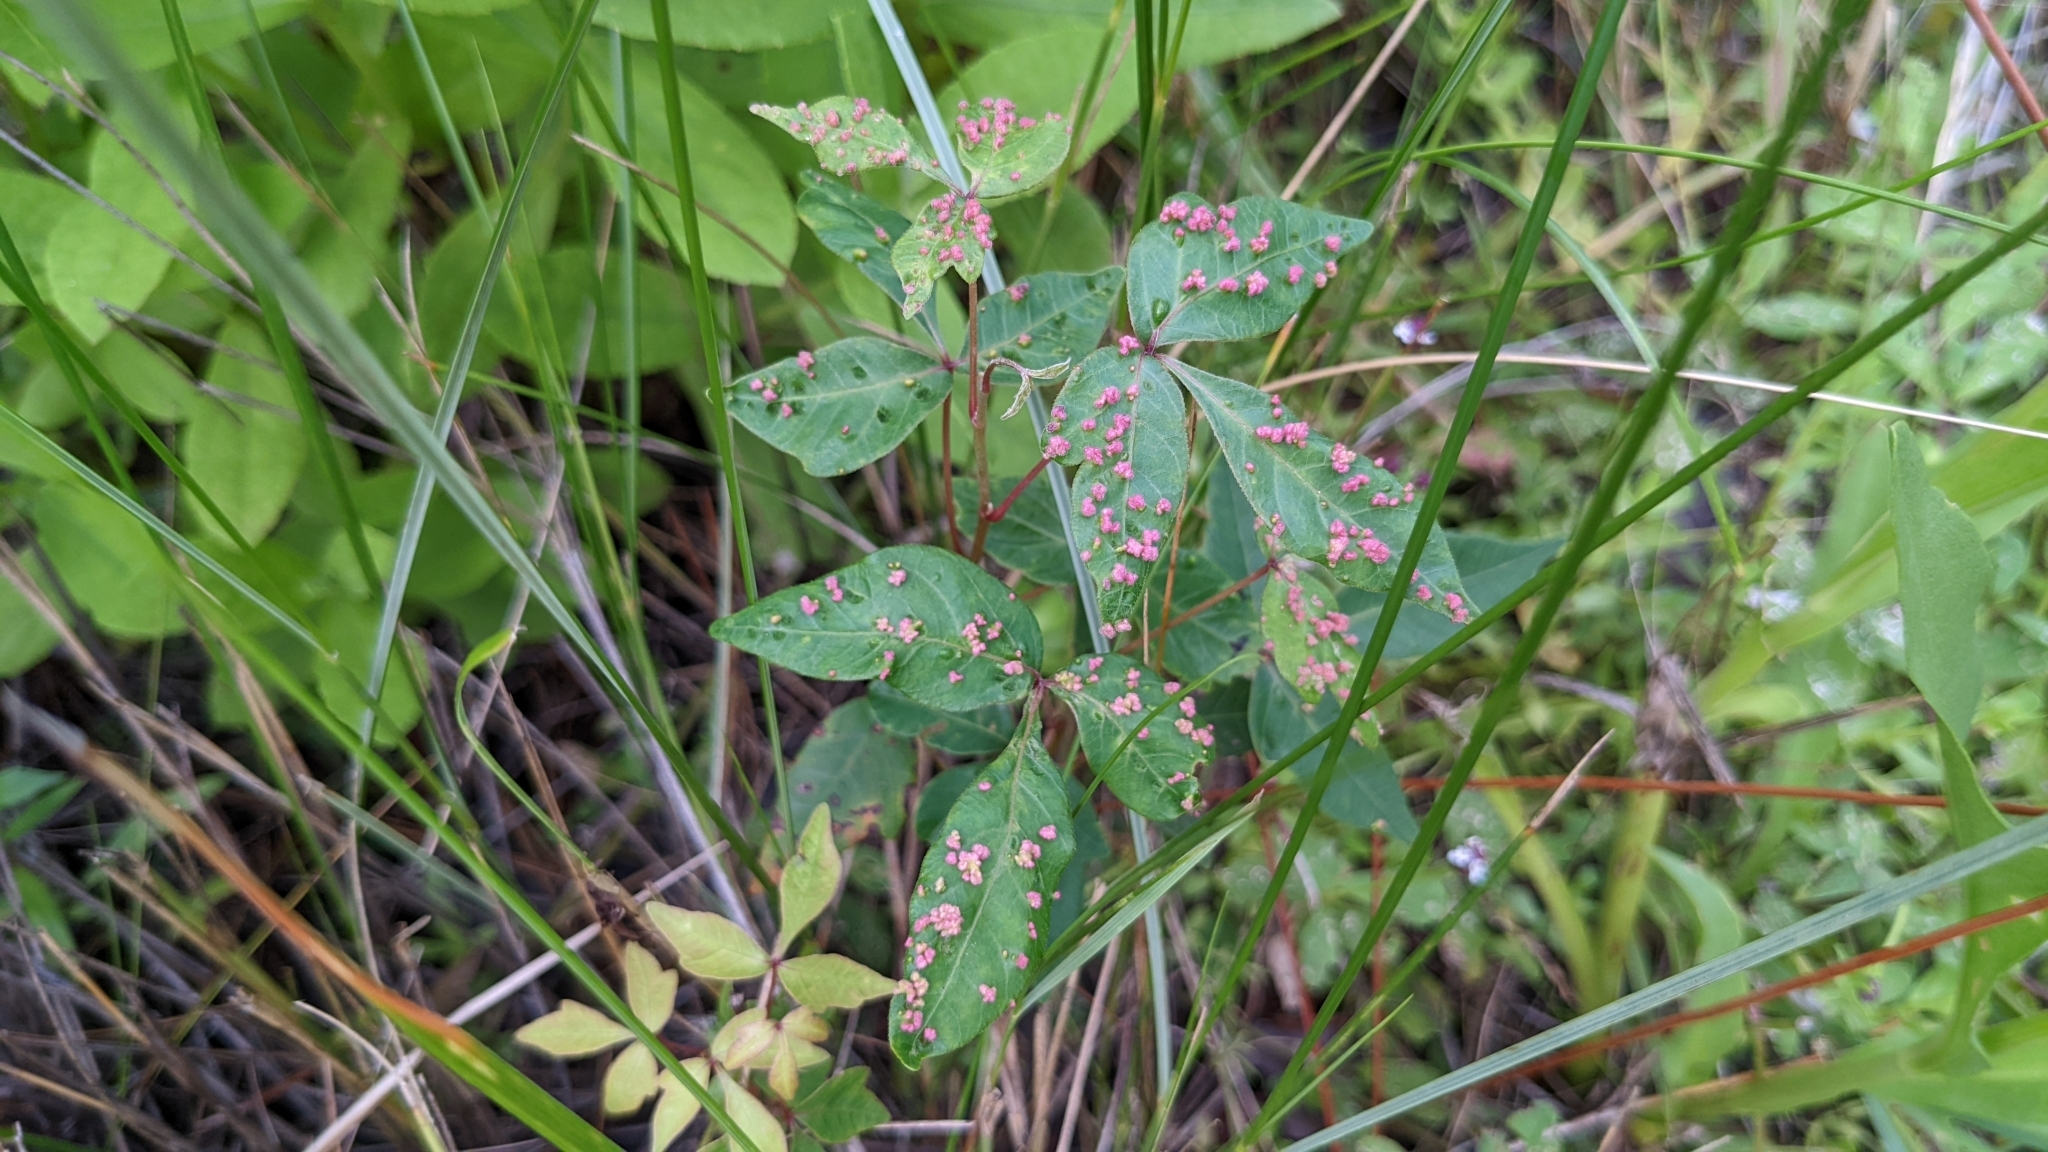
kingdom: Animalia
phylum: Arthropoda
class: Arachnida
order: Trombidiformes
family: Eriophyidae
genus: Aculops
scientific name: Aculops
